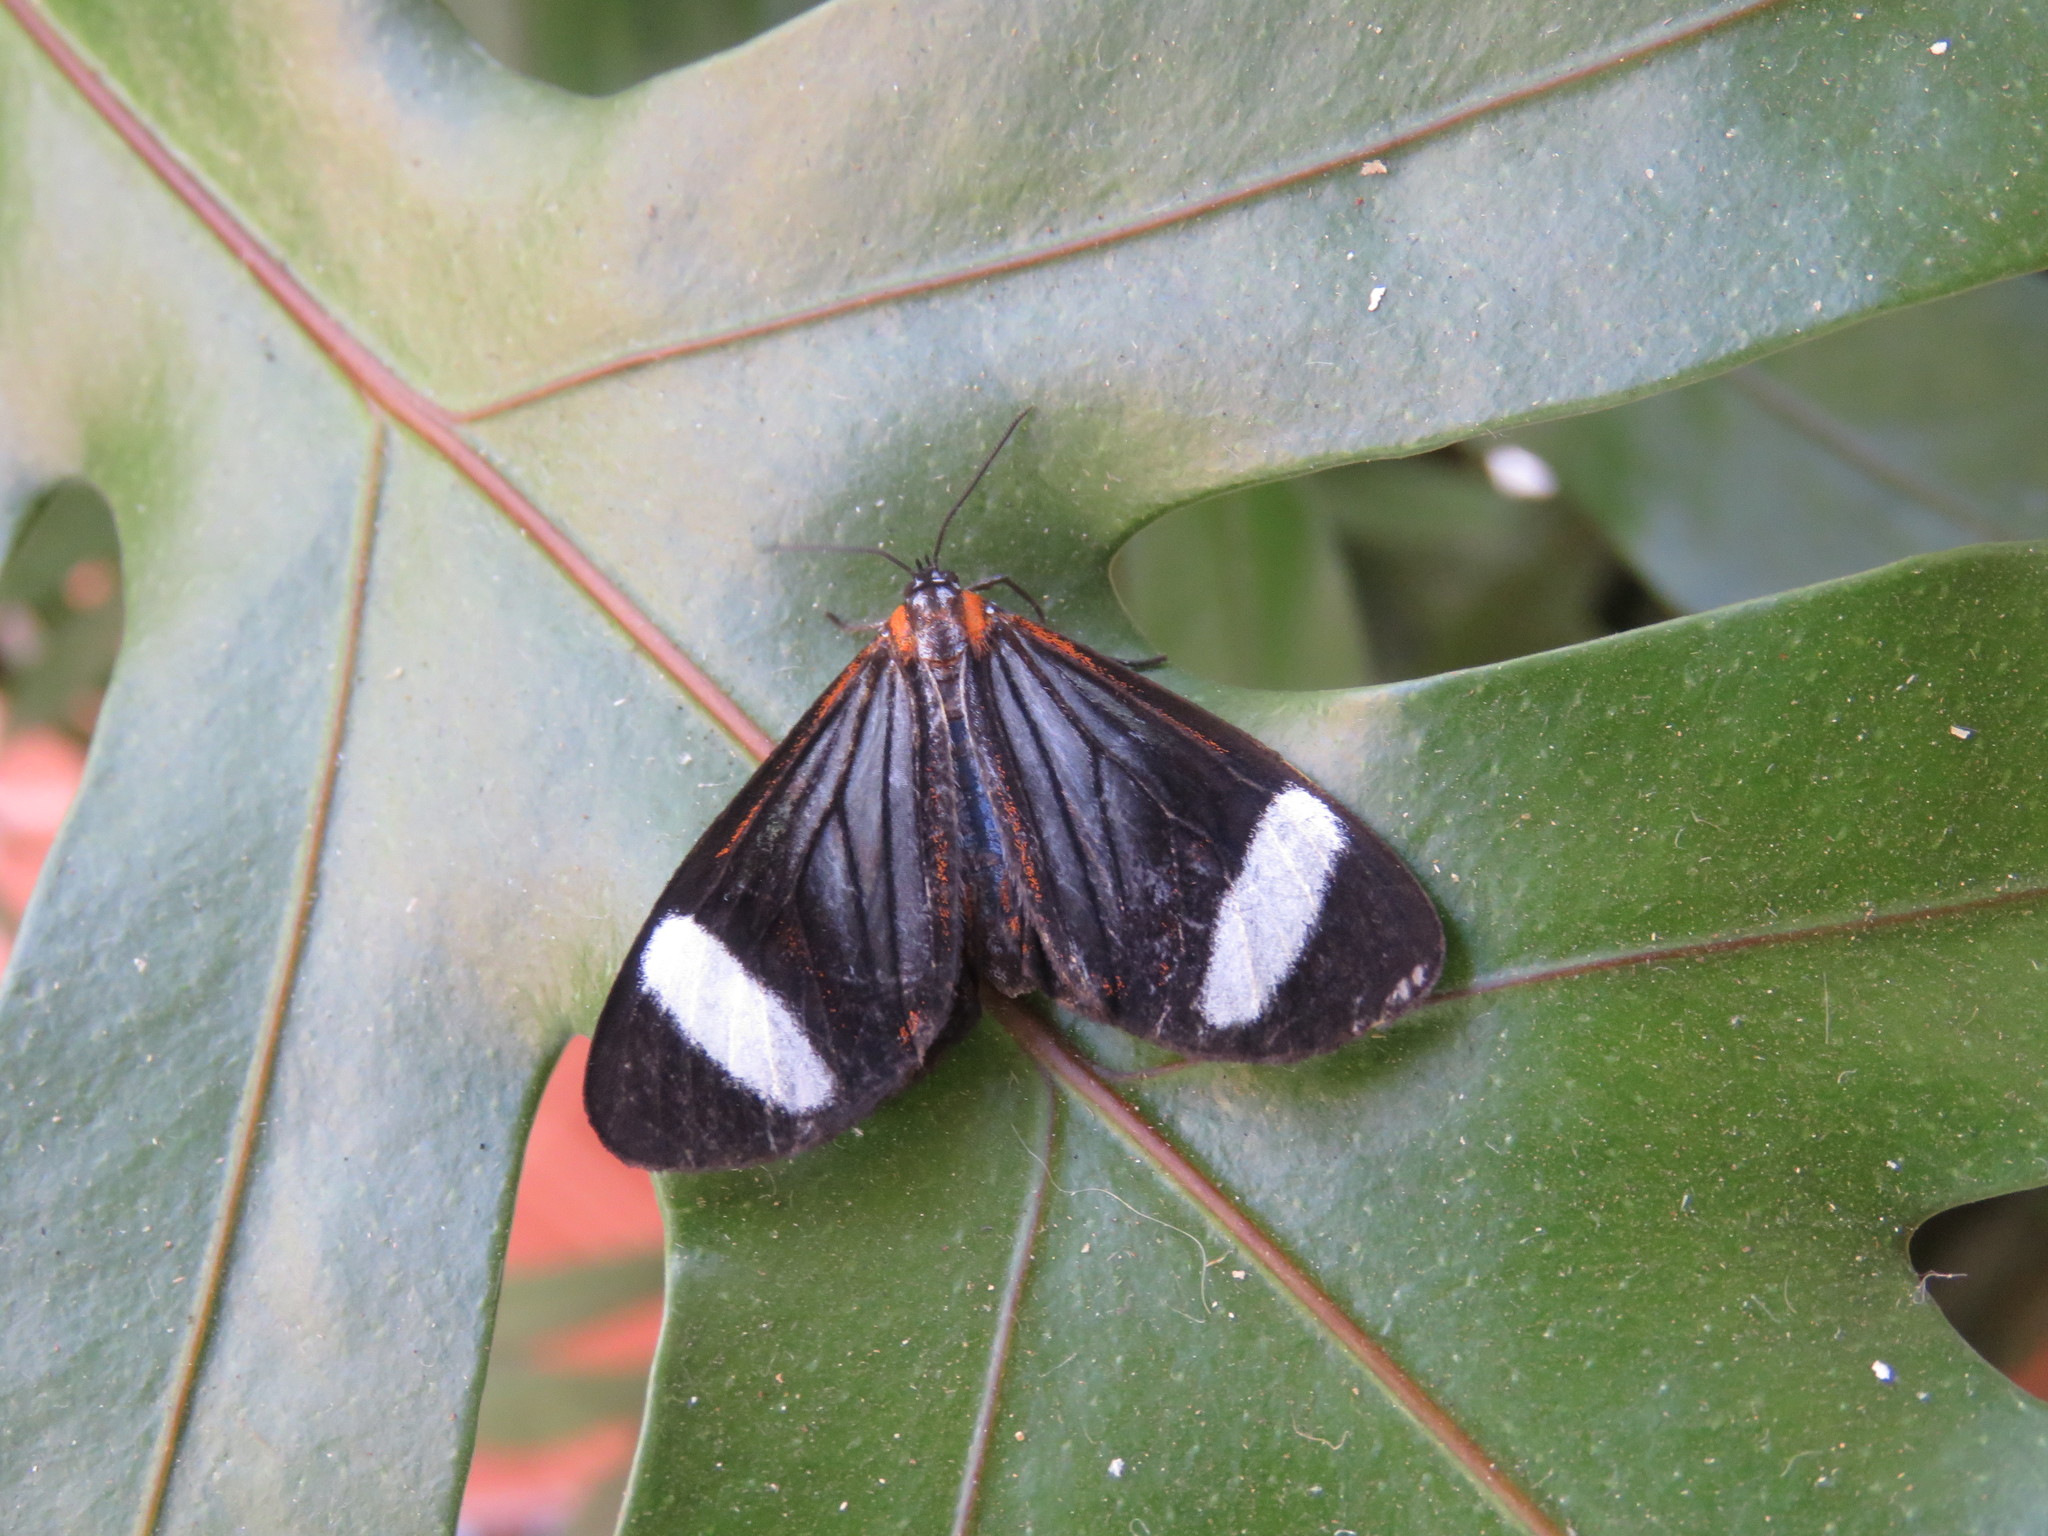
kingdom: Animalia
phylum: Arthropoda
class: Insecta
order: Lepidoptera
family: Erebidae
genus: Hyalurga
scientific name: Hyalurga sora
